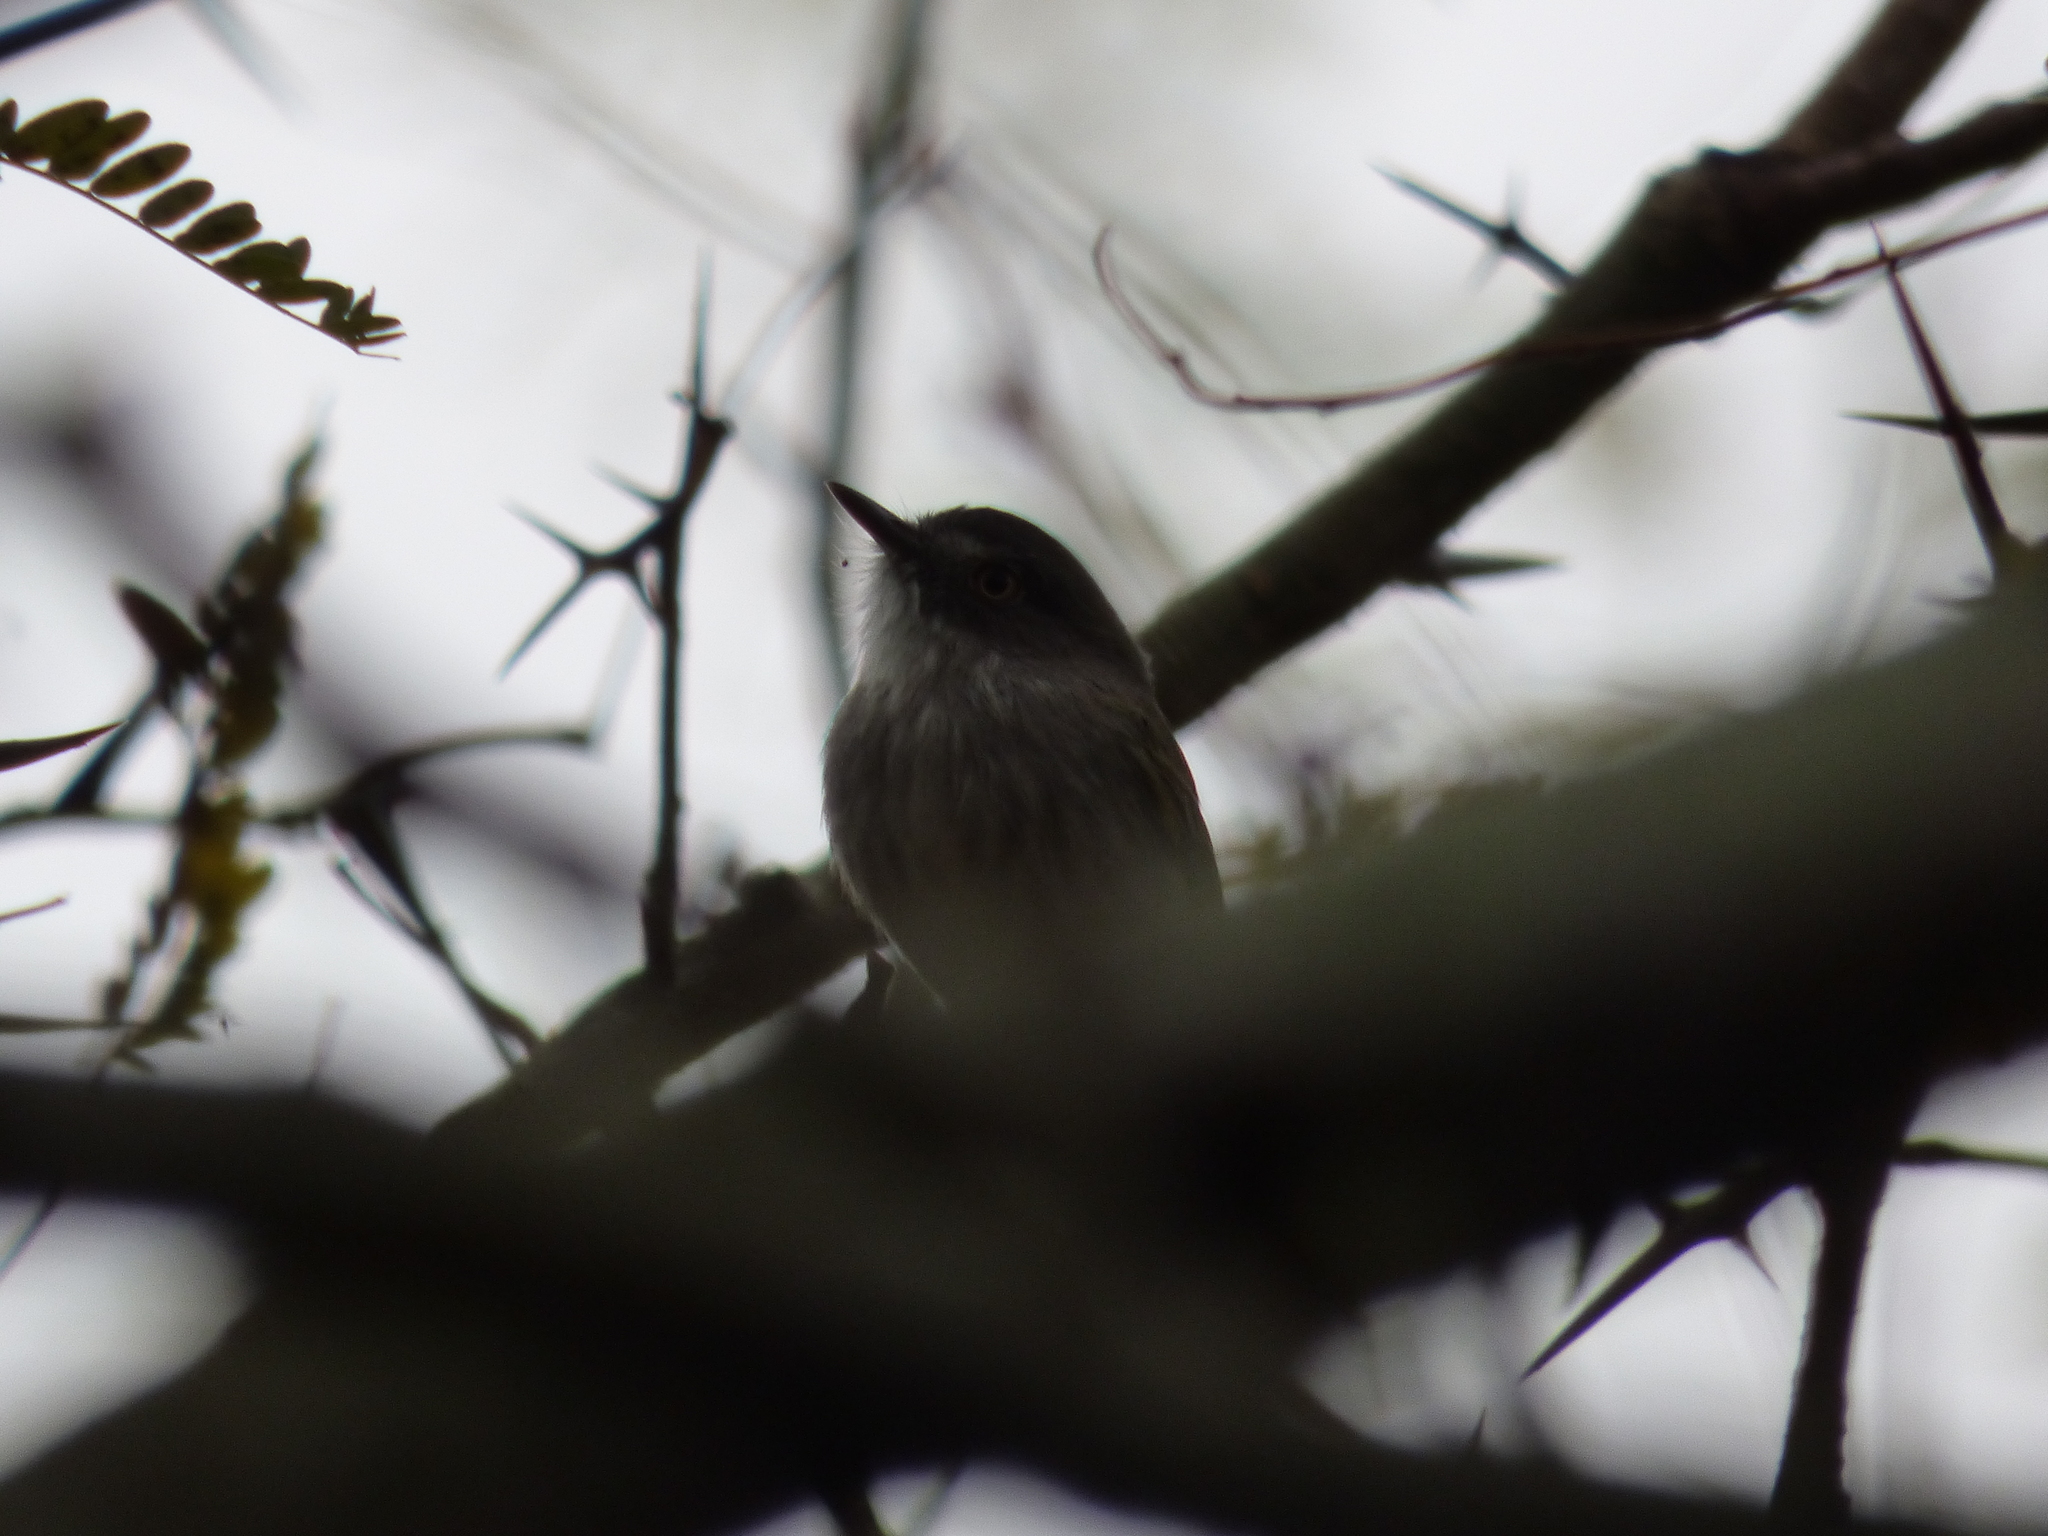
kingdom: Animalia
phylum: Chordata
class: Aves
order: Passeriformes
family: Tyrannidae
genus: Hemitriccus
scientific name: Hemitriccus margaritaceiventer
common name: Pearly-vented tody-tyrant
